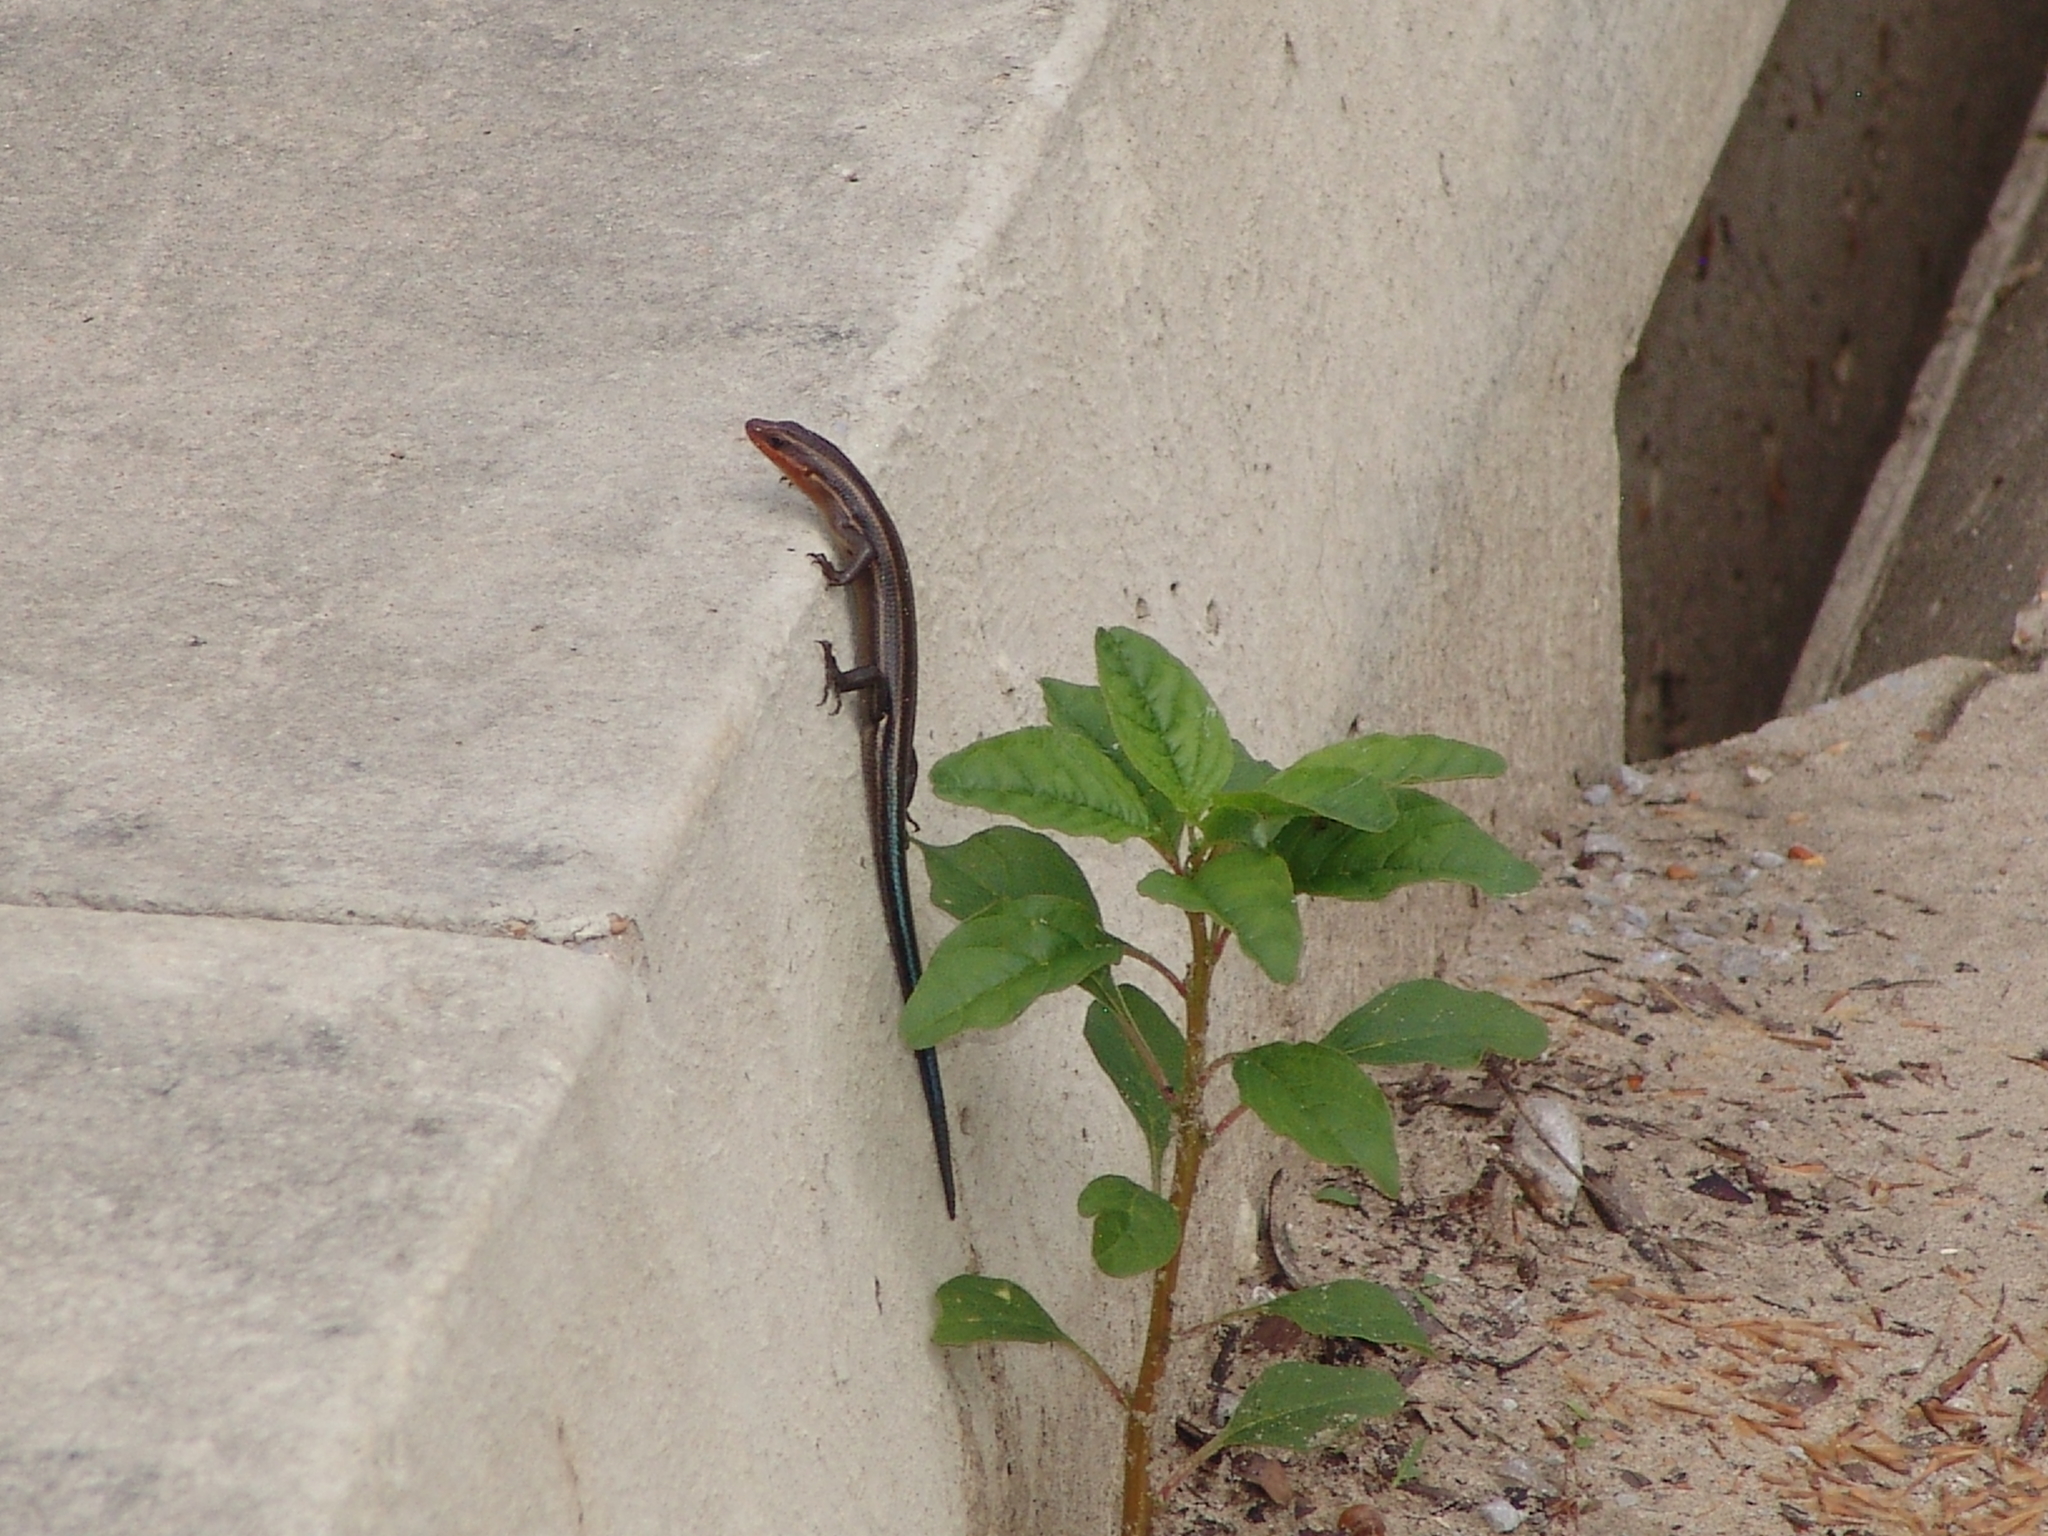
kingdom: Animalia
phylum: Chordata
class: Squamata
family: Scincidae
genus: Plestiodon
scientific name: Plestiodon fasciatus
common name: Five-lined skink
